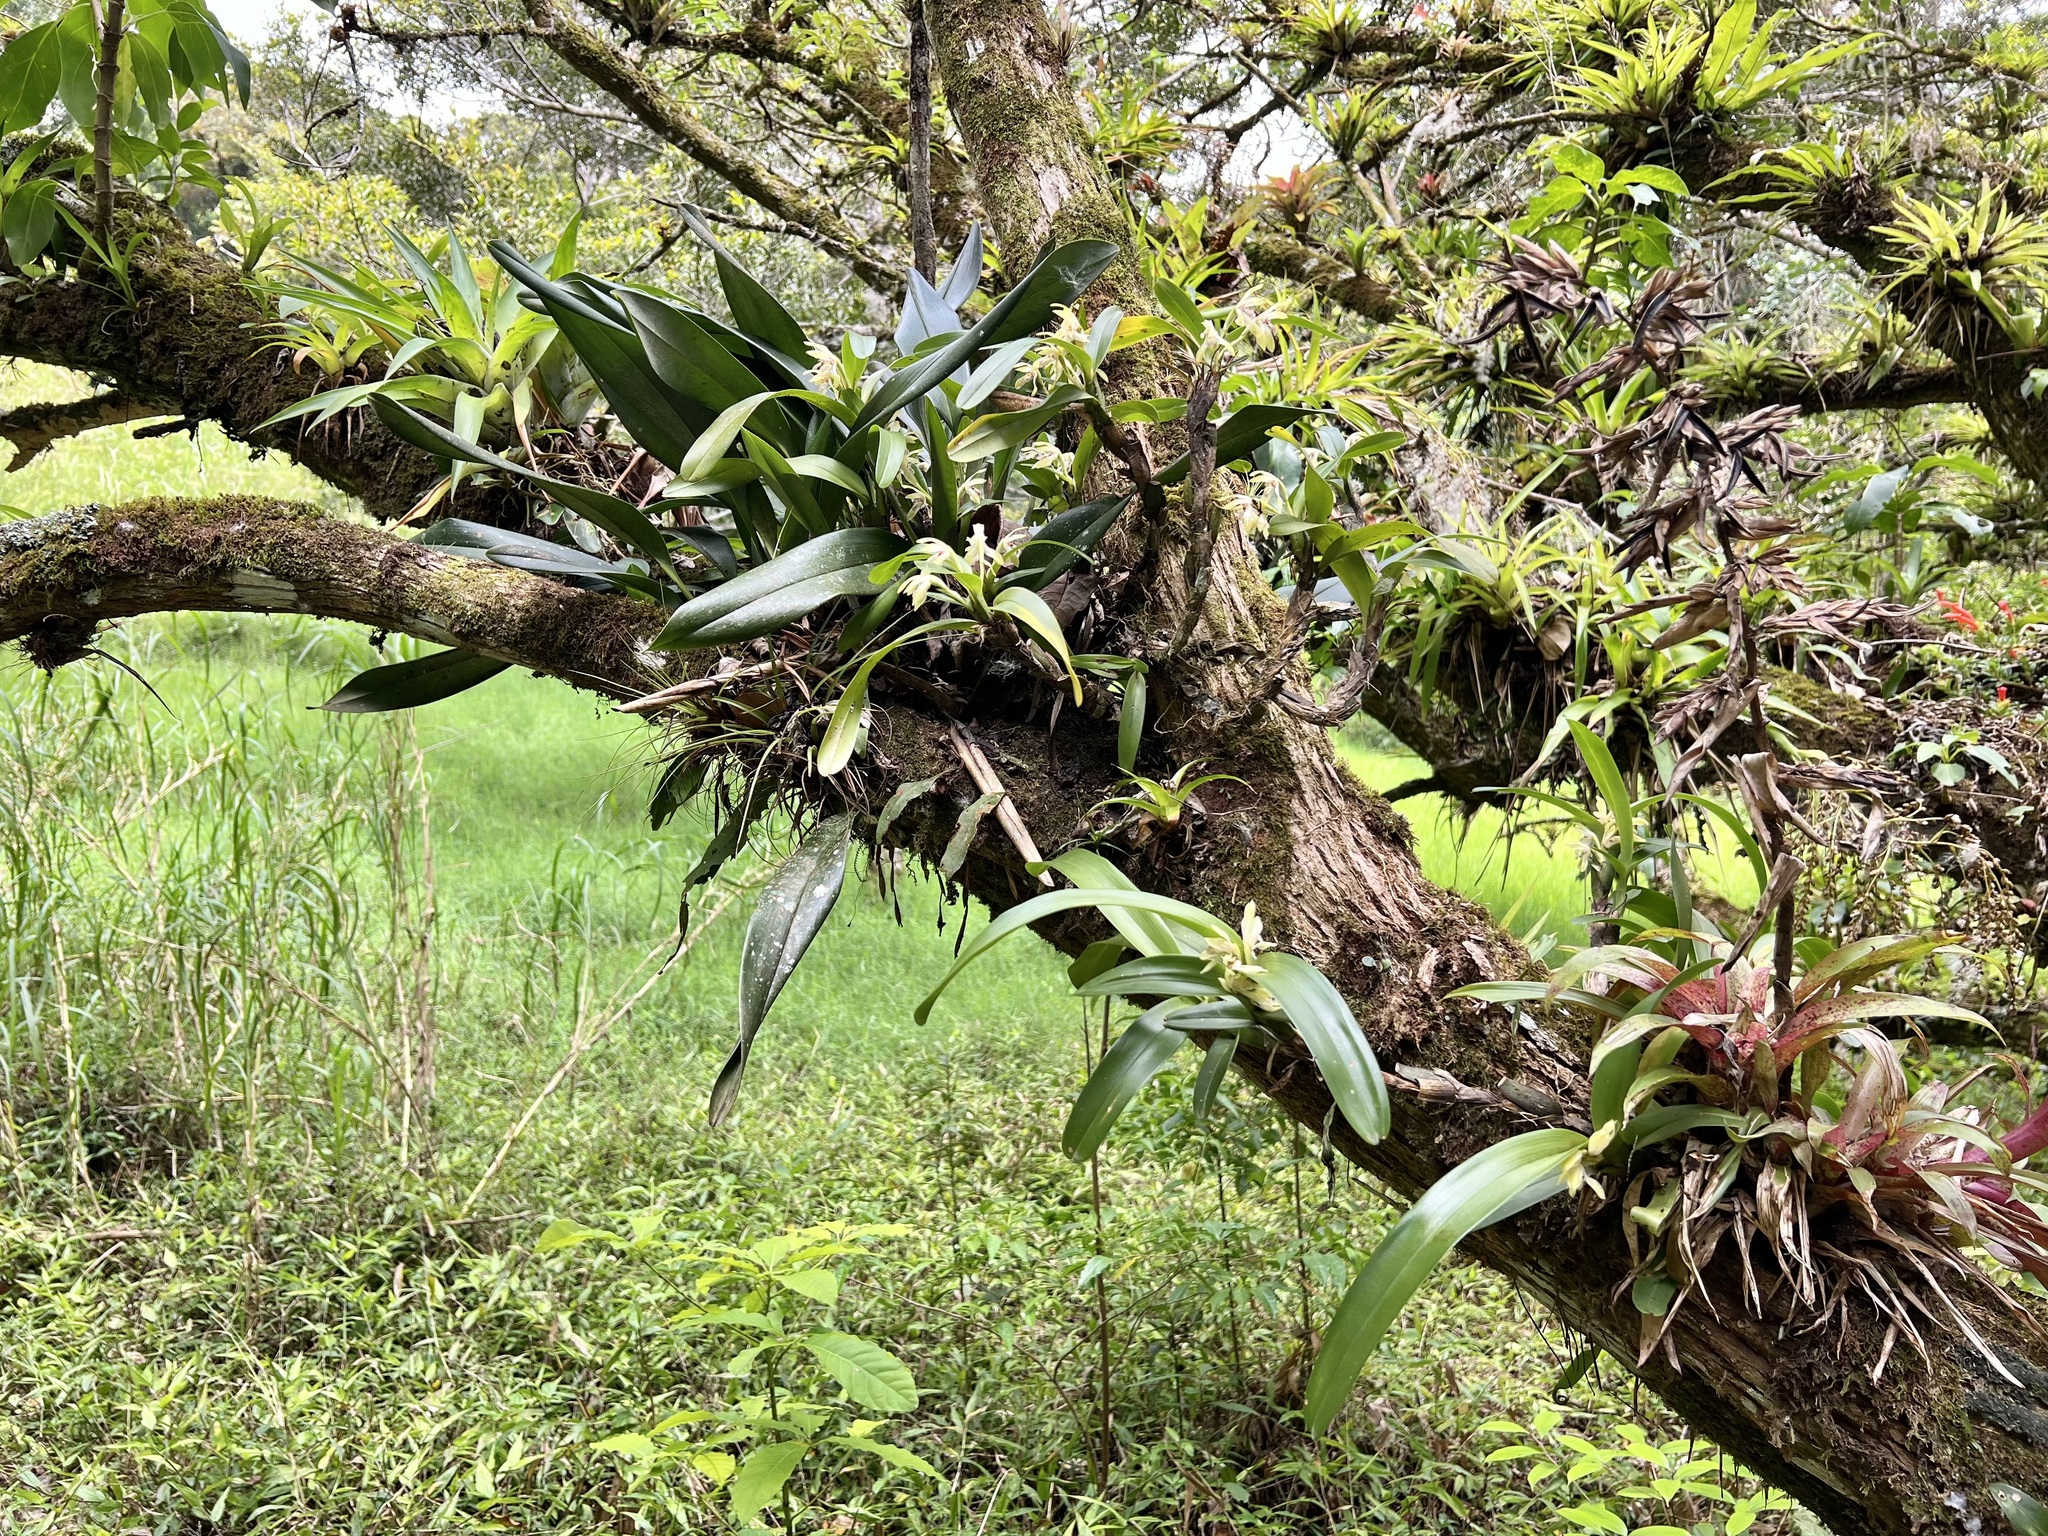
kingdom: Plantae
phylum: Tracheophyta
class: Liliopsida
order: Asparagales
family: Orchidaceae
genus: Maxillaria
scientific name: Maxillaria bracteata
